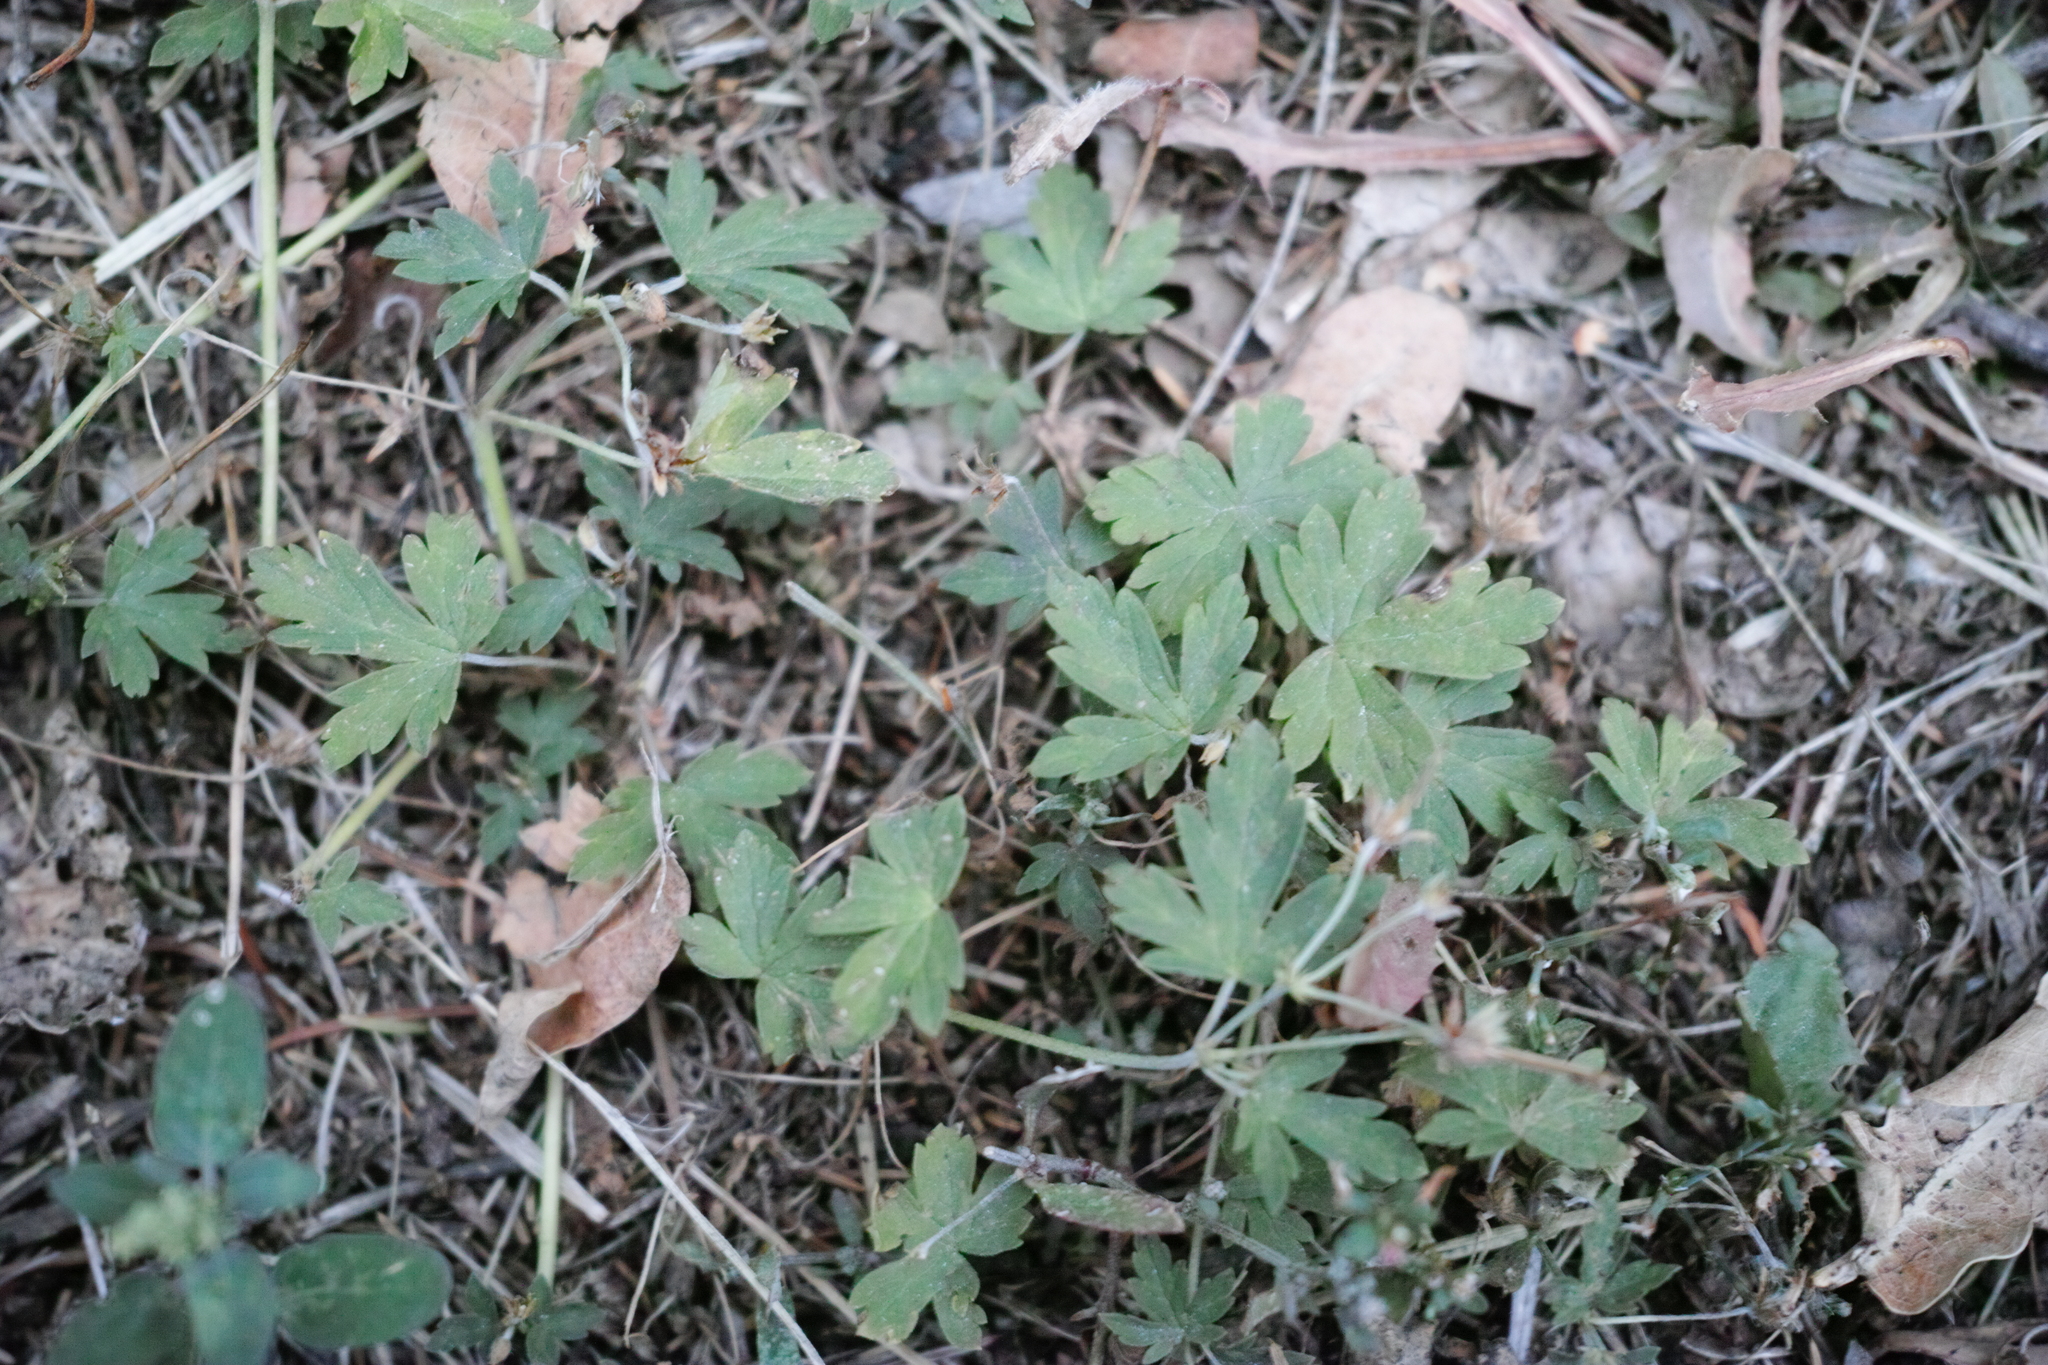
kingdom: Plantae
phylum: Tracheophyta
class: Magnoliopsida
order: Geraniales
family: Geraniaceae
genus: Geranium
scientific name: Geranium sibiricum
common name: Siberian crane's-bill
